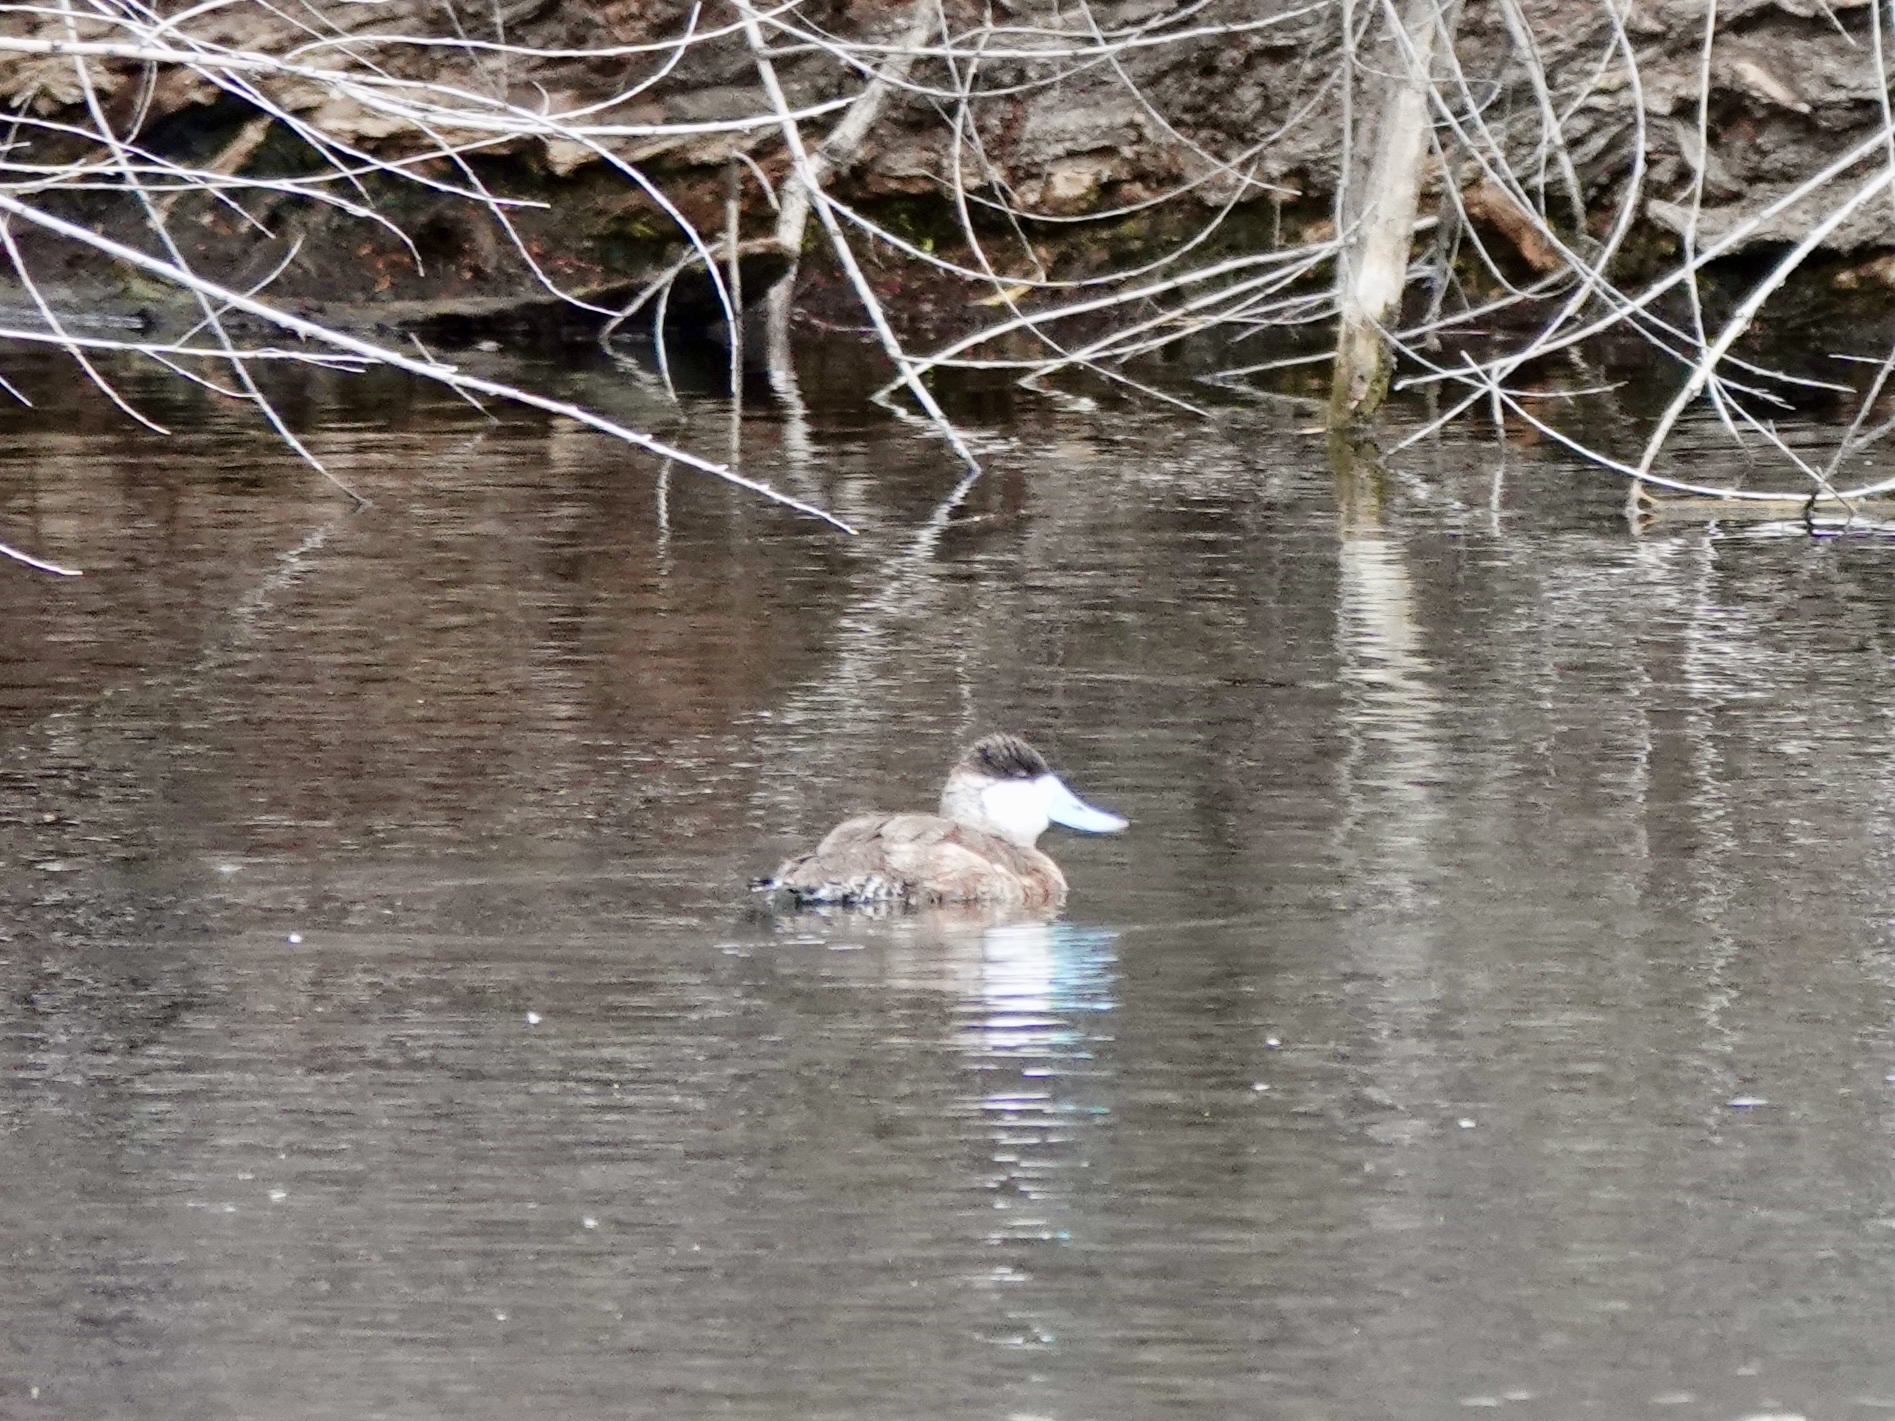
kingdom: Animalia
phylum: Chordata
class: Aves
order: Anseriformes
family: Anatidae
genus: Oxyura
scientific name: Oxyura jamaicensis
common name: Ruddy duck
